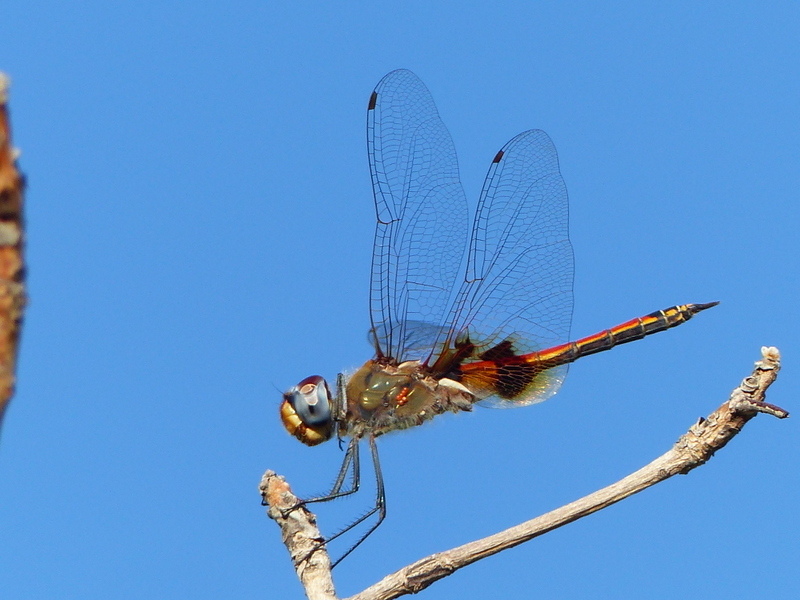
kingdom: Animalia
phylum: Arthropoda
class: Insecta
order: Odonata
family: Libellulidae
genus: Tramea
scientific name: Tramea basilaris
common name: Keyhole glider
